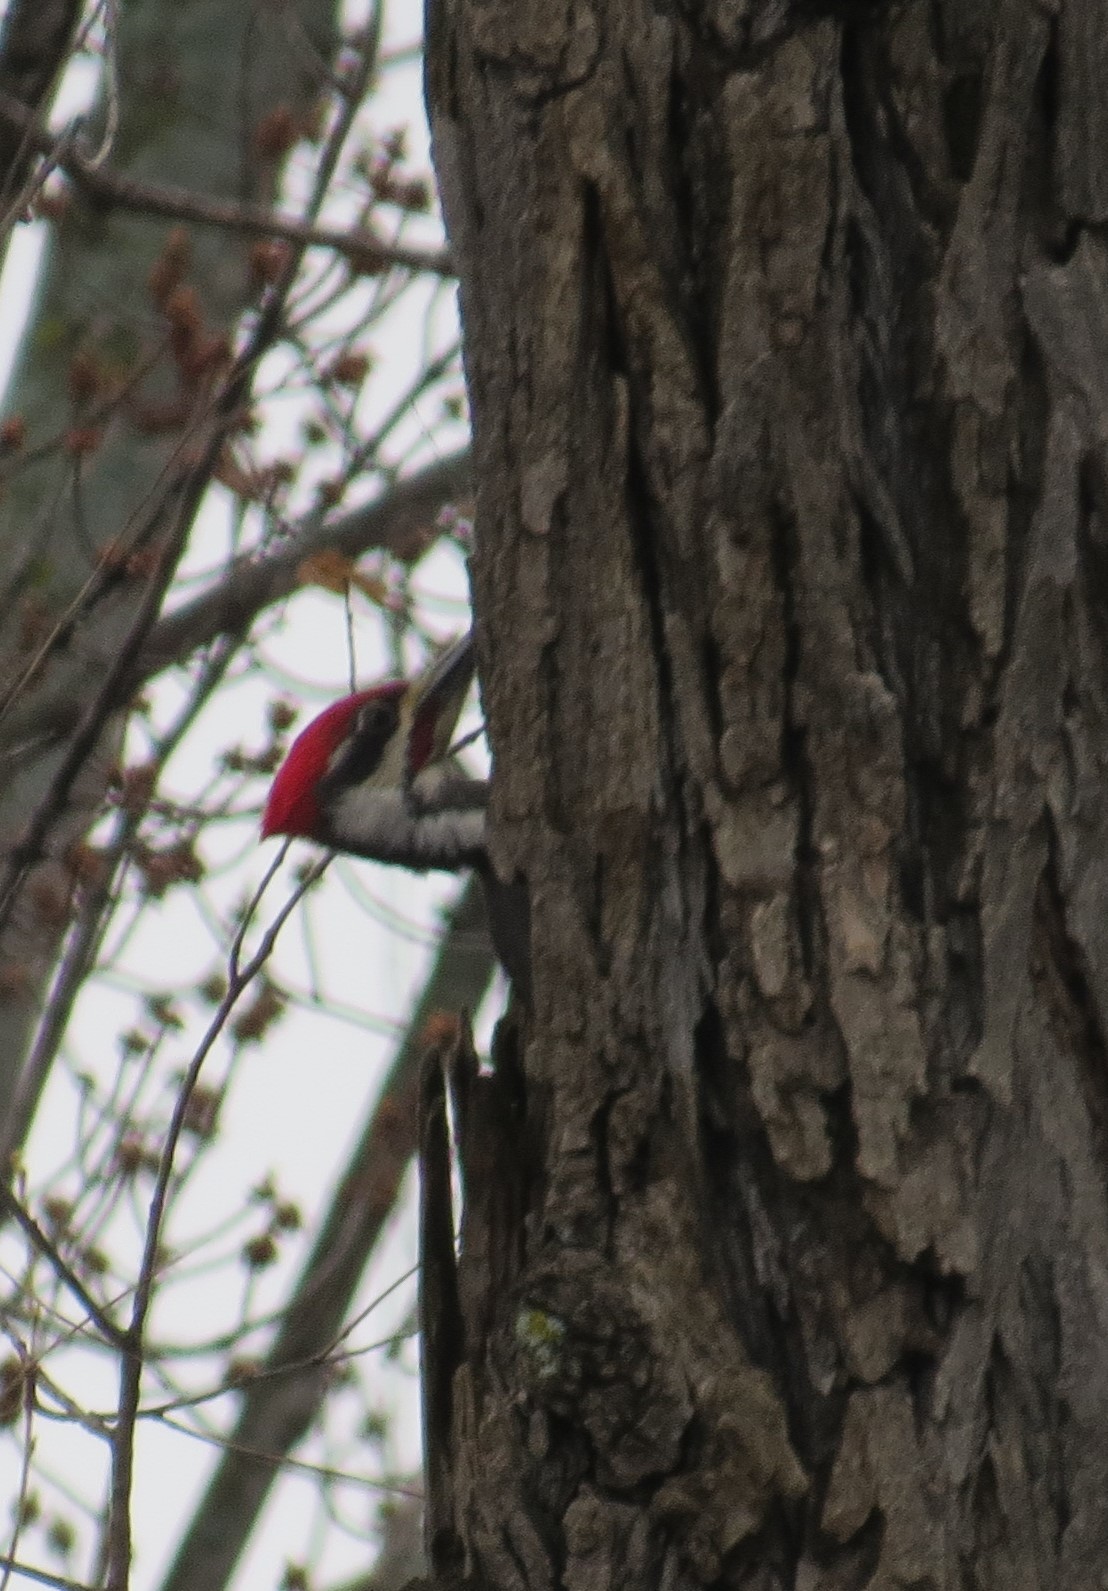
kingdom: Animalia
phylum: Chordata
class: Aves
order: Piciformes
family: Picidae
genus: Dryocopus
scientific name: Dryocopus pileatus
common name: Pileated woodpecker
